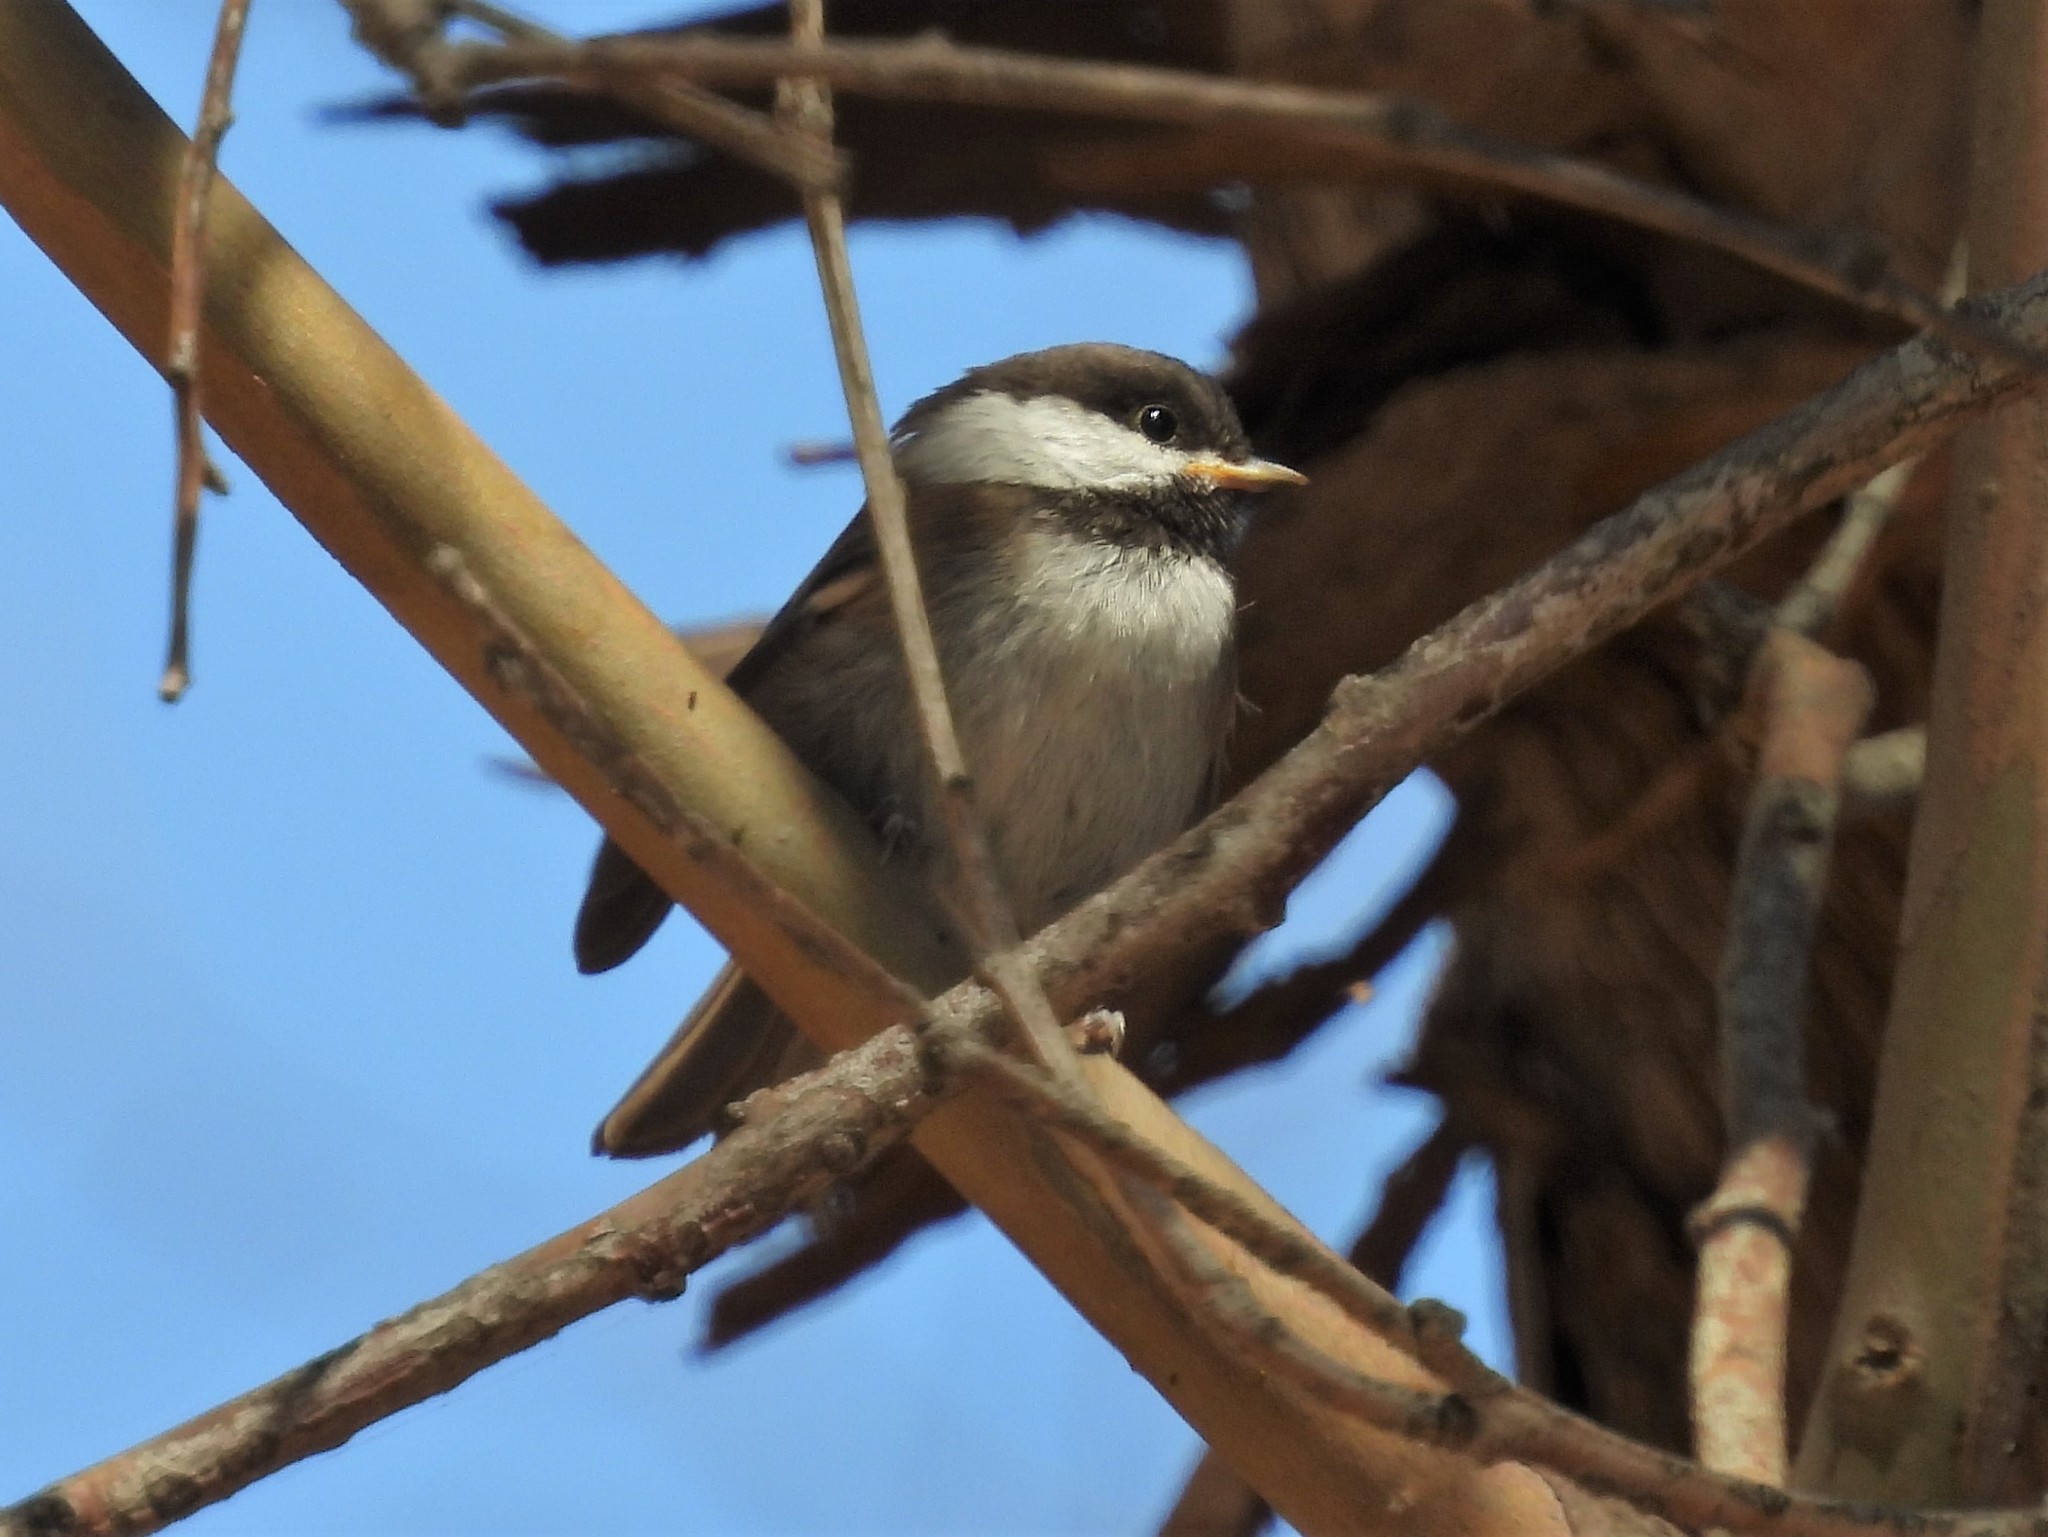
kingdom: Animalia
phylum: Chordata
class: Aves
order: Passeriformes
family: Paridae
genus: Poecile
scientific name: Poecile rufescens
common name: Chestnut-backed chickadee
